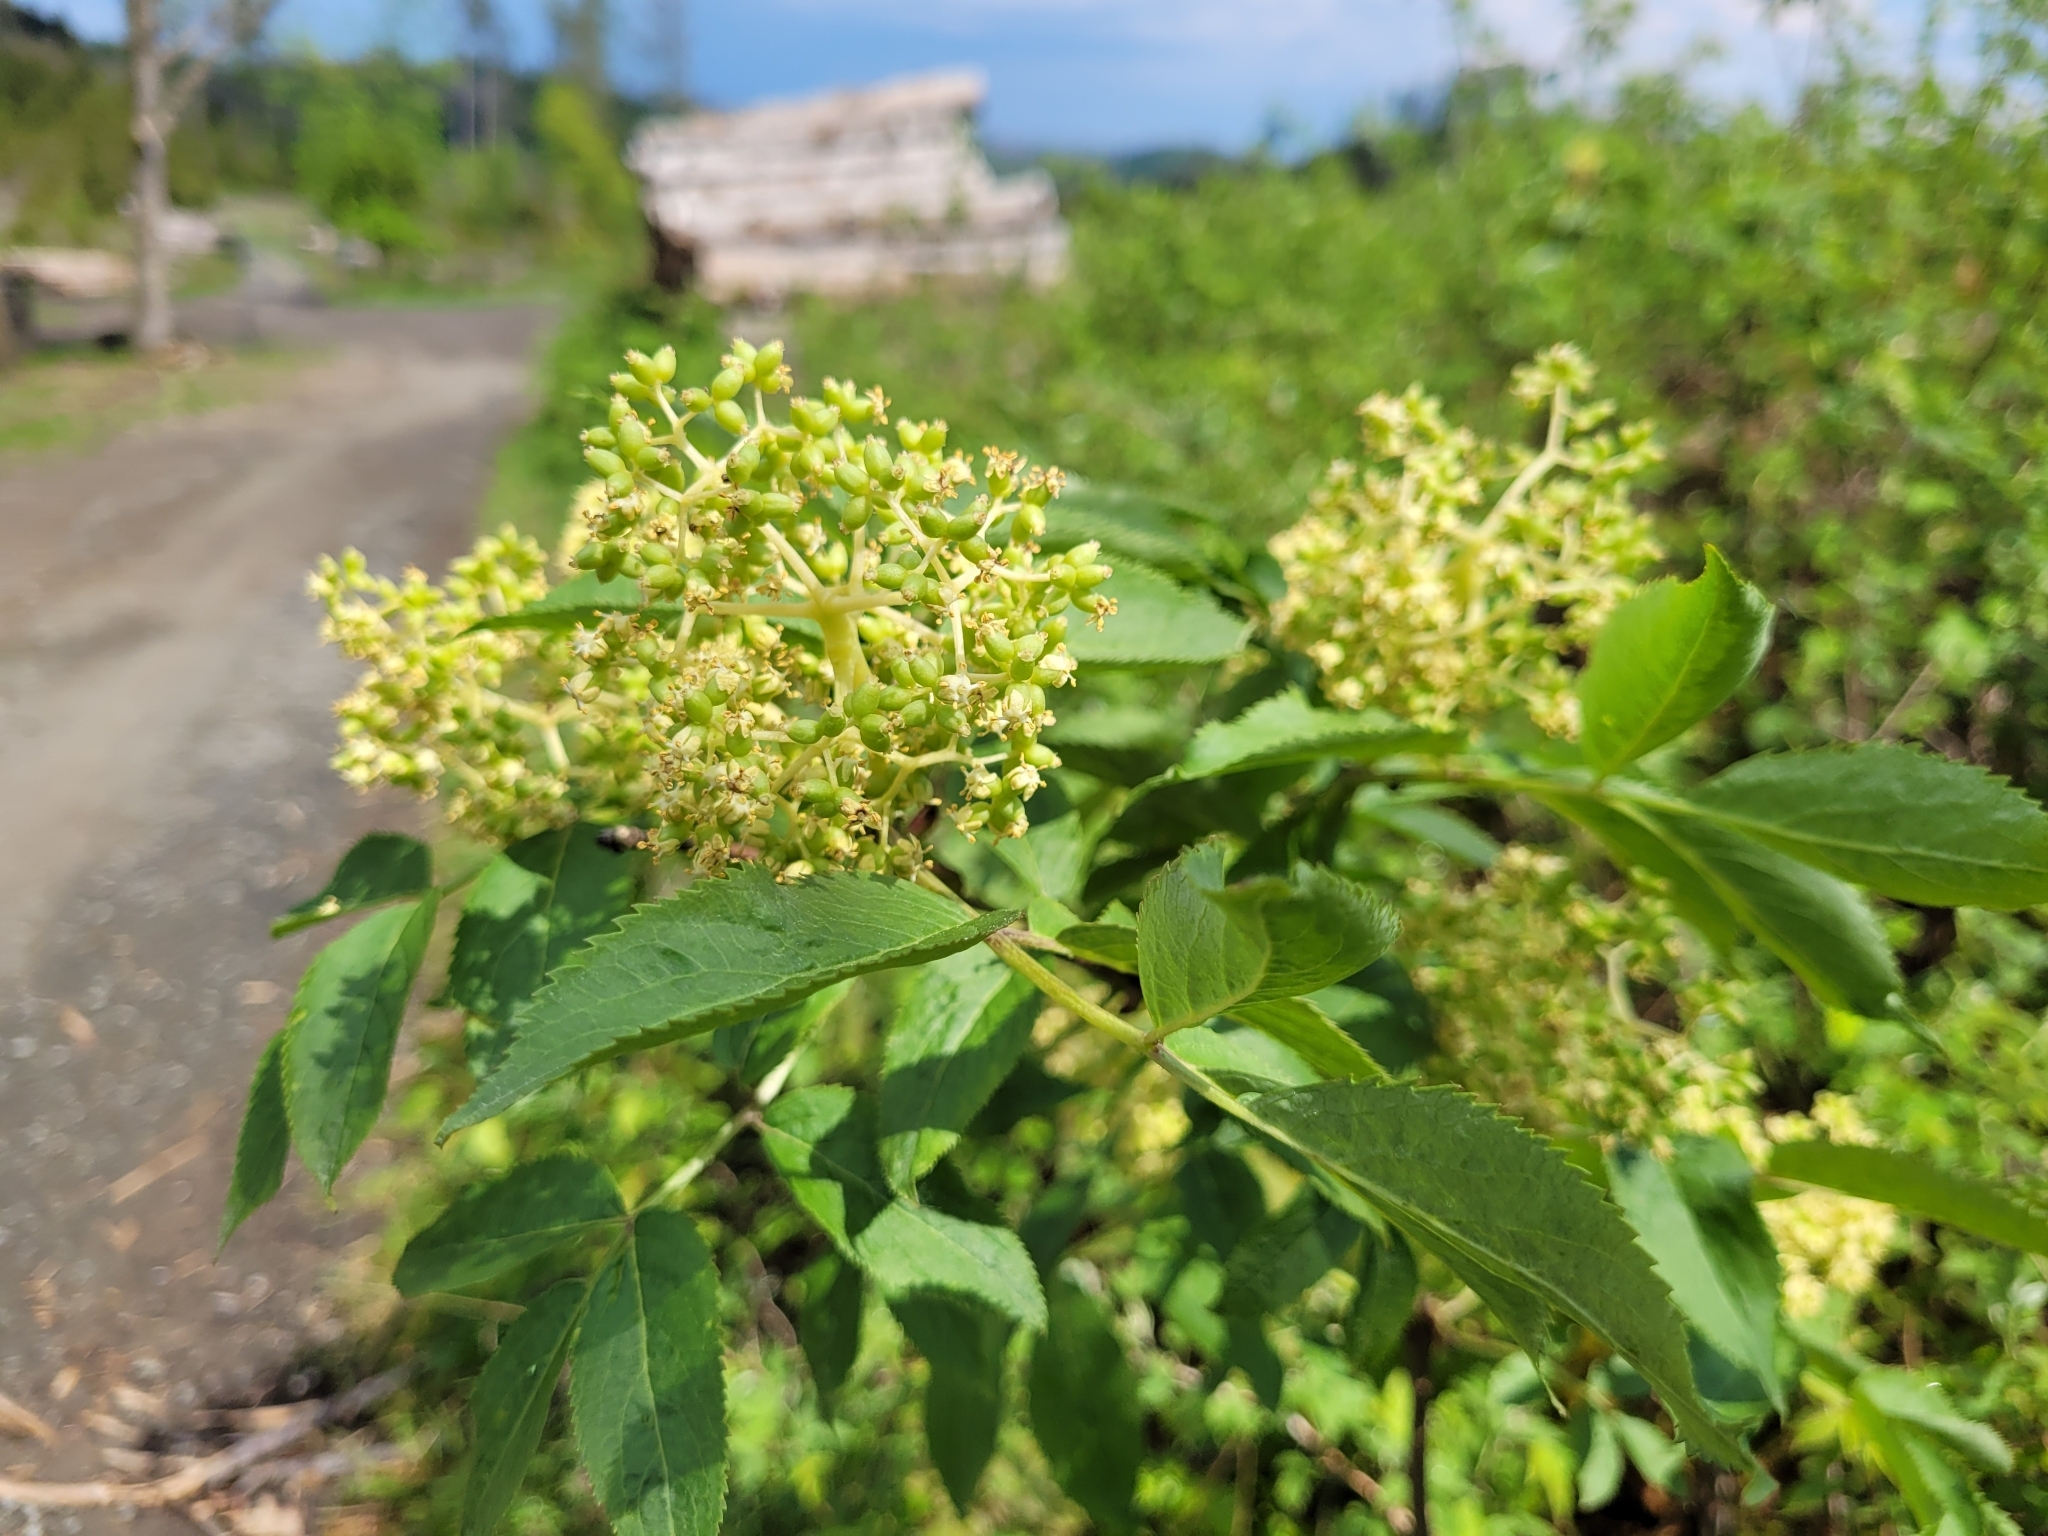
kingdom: Plantae
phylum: Tracheophyta
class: Magnoliopsida
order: Dipsacales
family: Viburnaceae
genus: Sambucus
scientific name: Sambucus racemosa
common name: Red-berried elder
